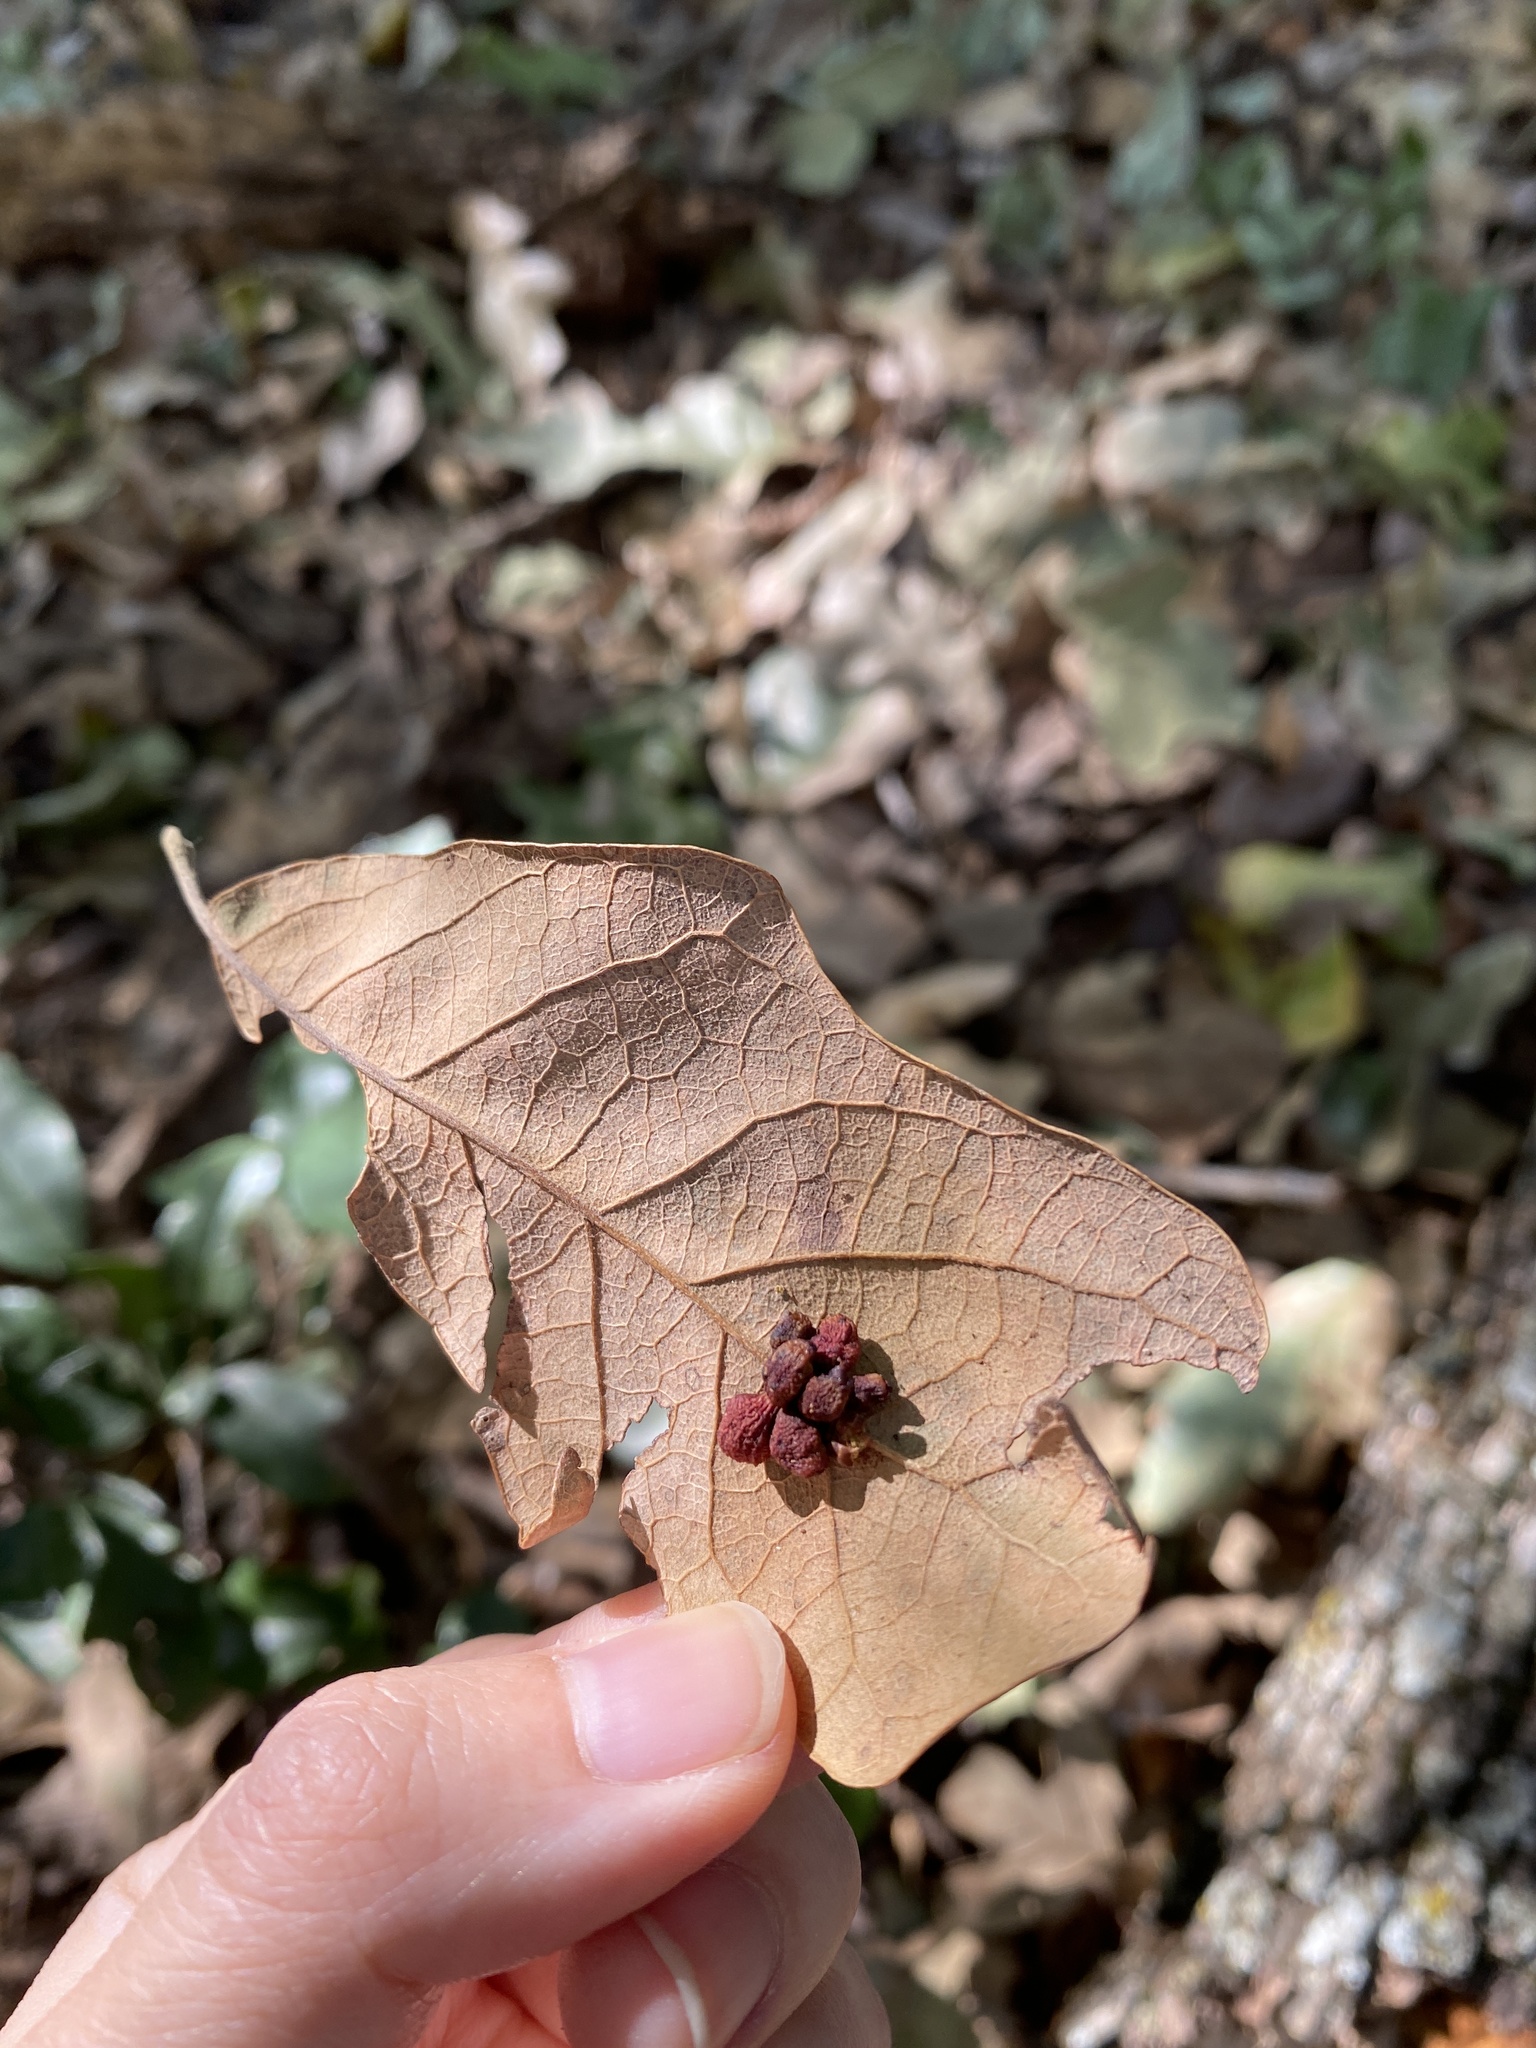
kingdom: Animalia
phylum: Arthropoda
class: Insecta
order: Hymenoptera
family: Cynipidae
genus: Andricus
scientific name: Andricus lustrans
